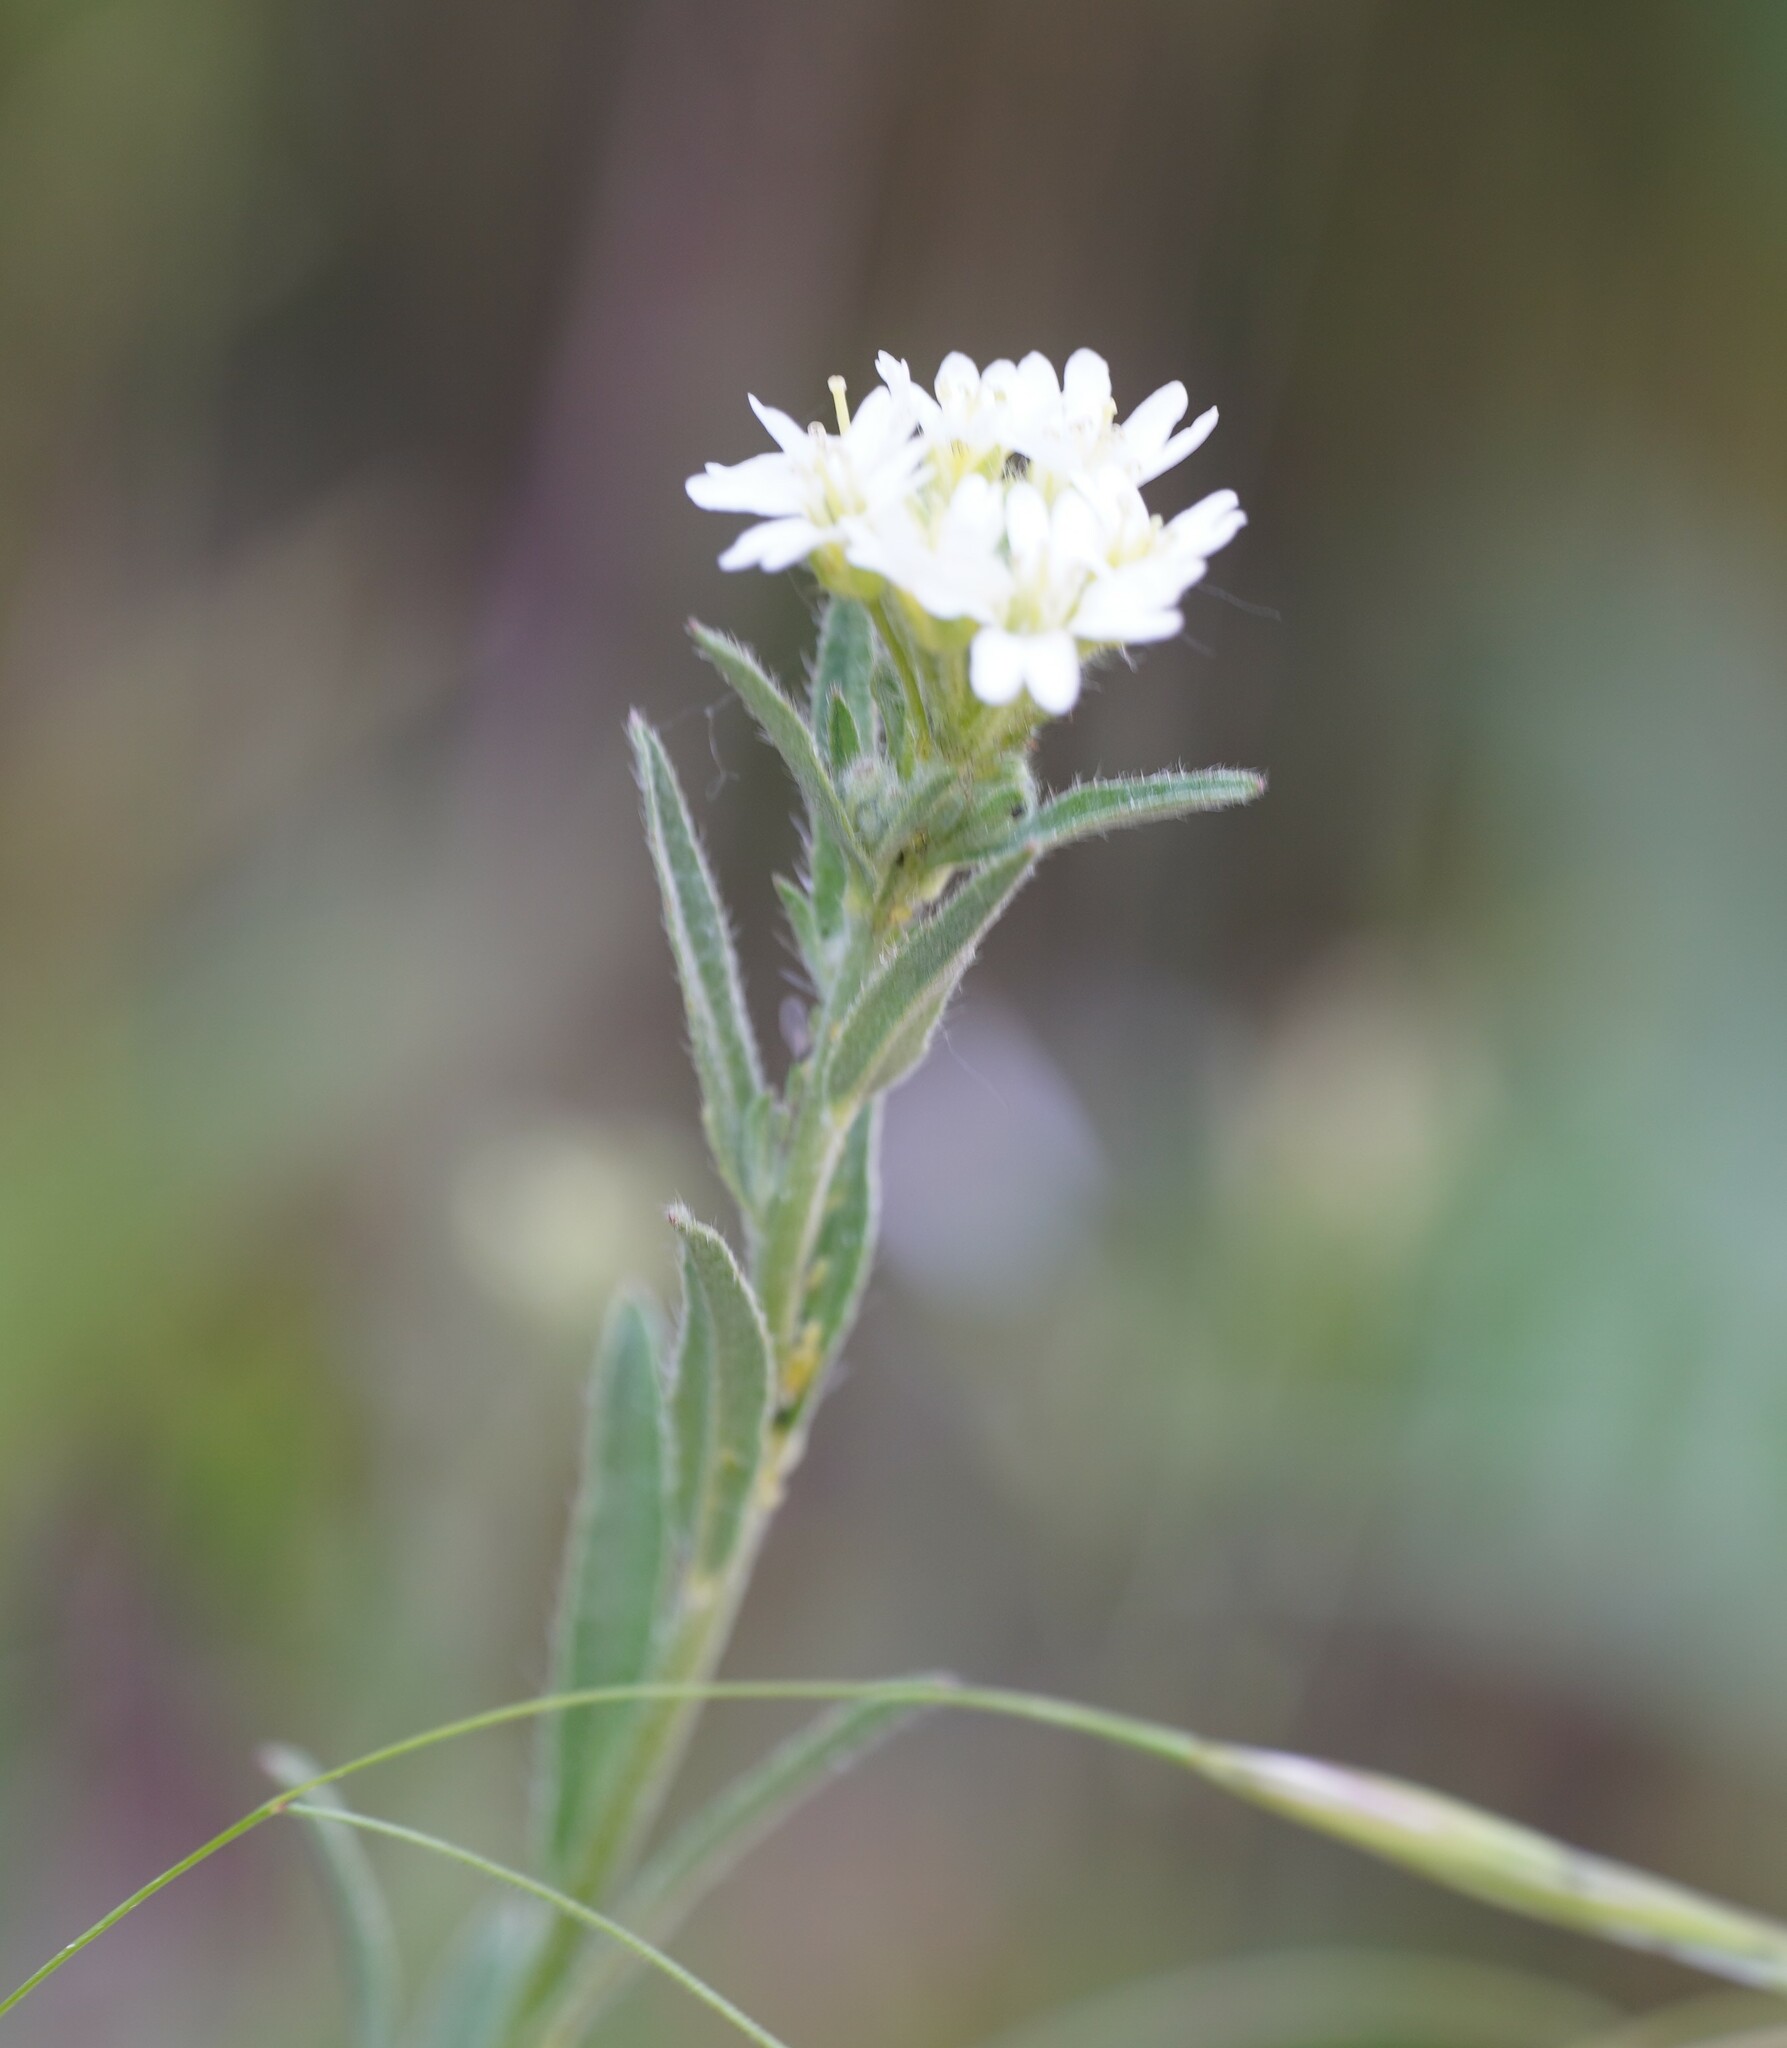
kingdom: Plantae
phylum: Tracheophyta
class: Magnoliopsida
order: Brassicales
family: Brassicaceae
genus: Berteroa
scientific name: Berteroa incana
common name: Hoary alison
